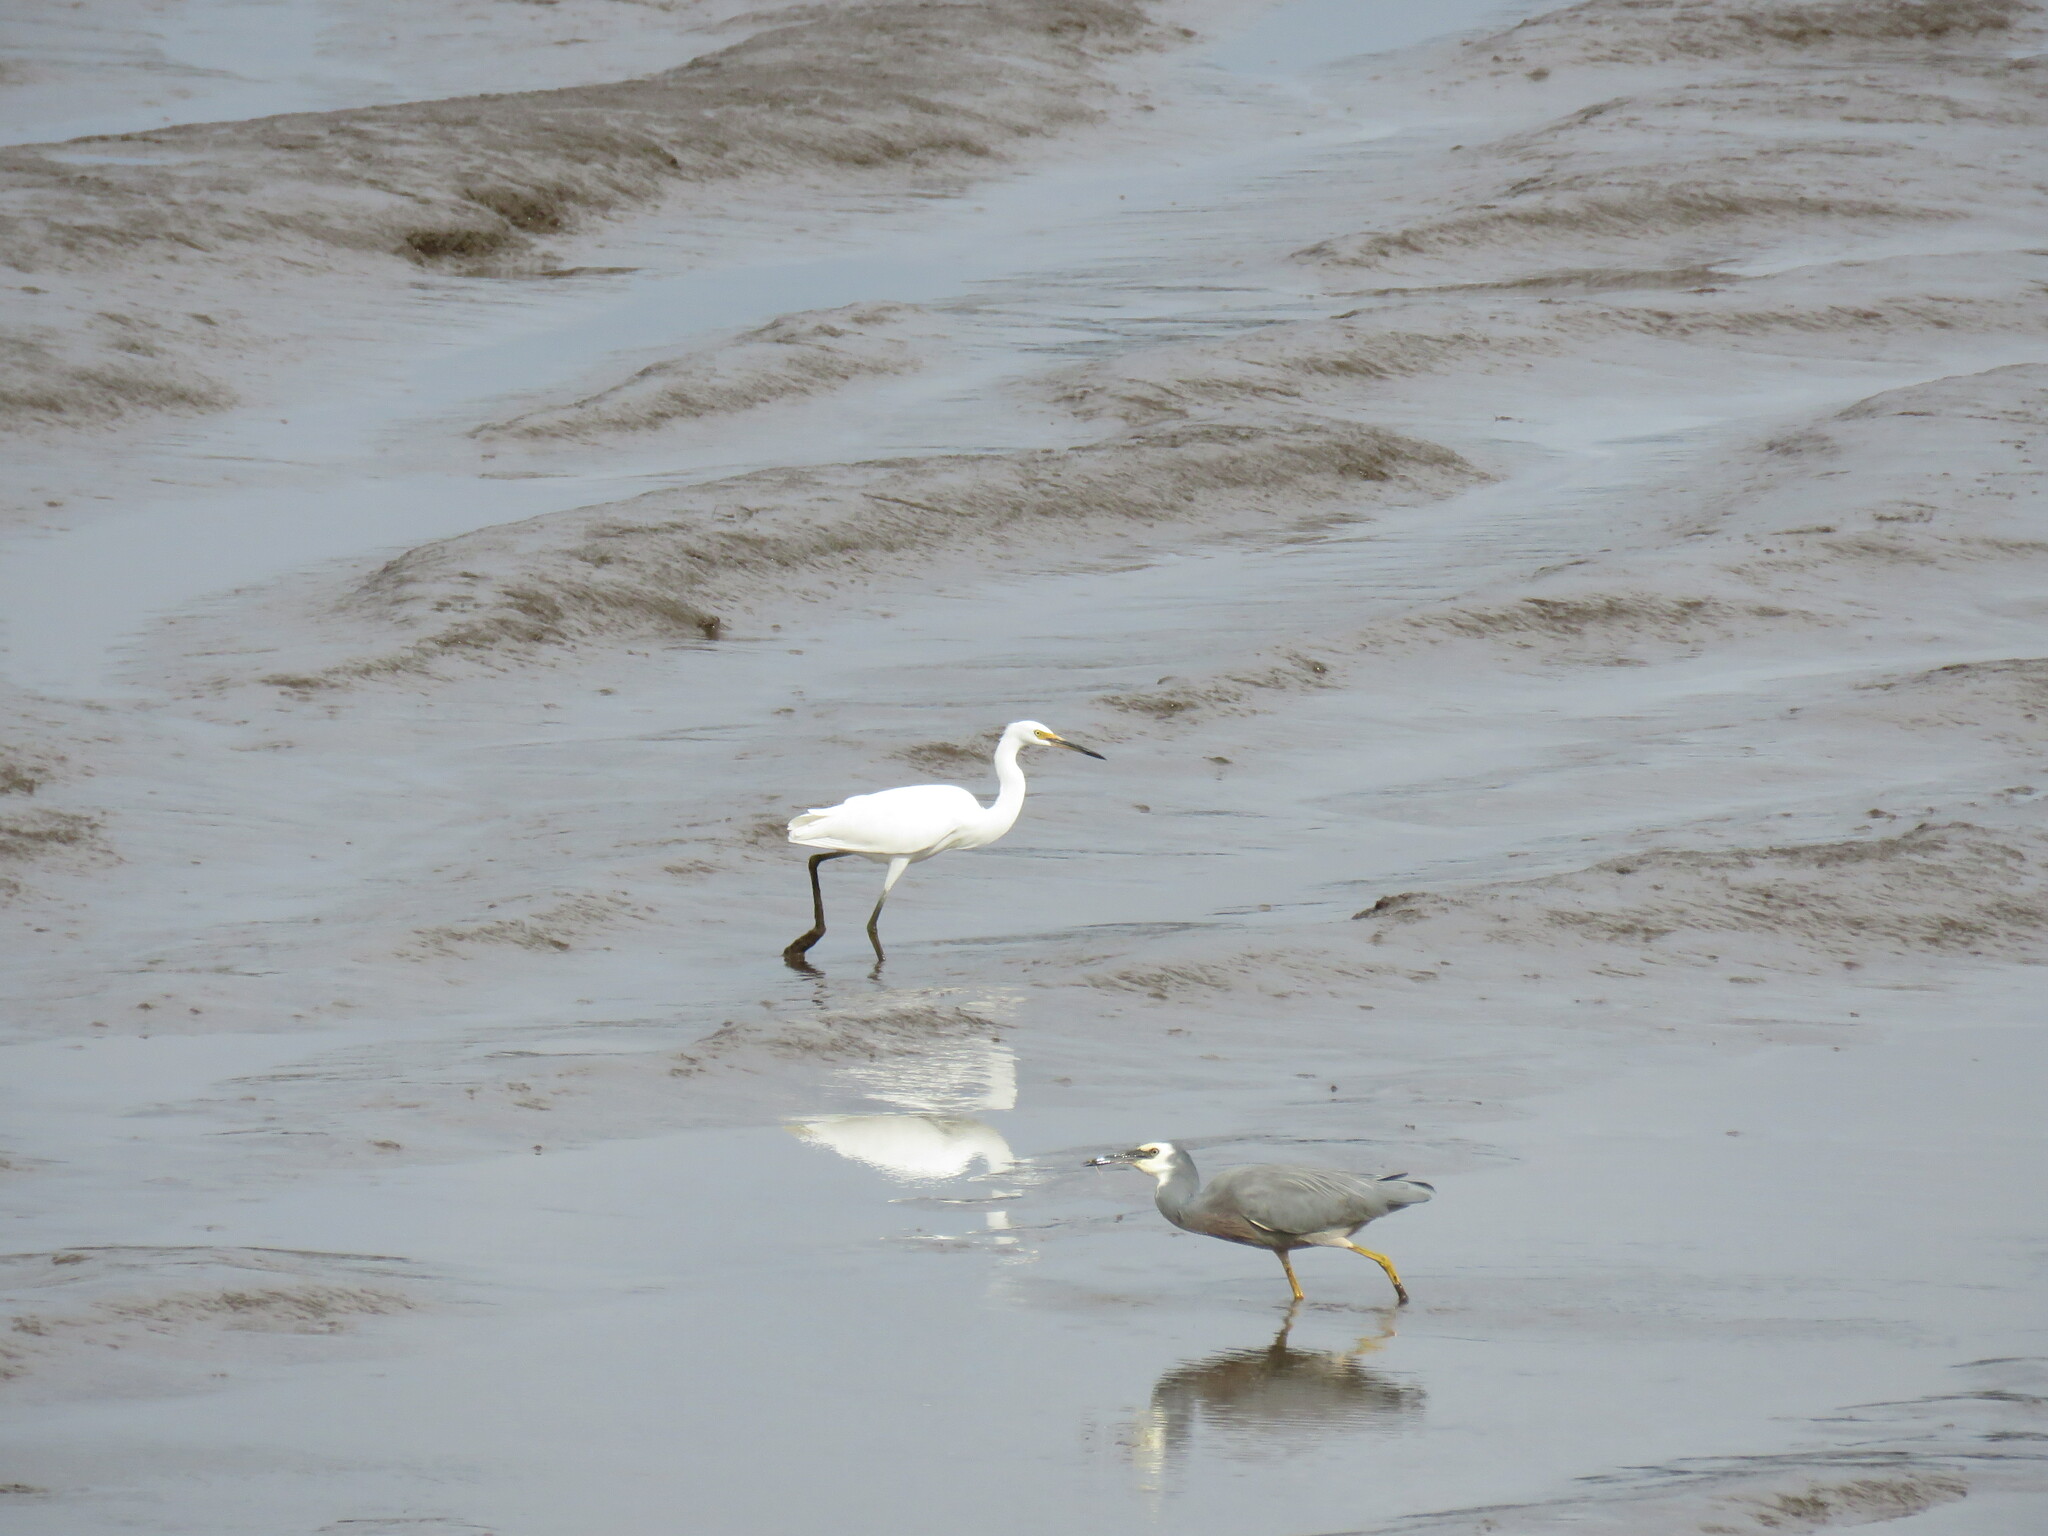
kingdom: Animalia
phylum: Chordata
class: Aves
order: Pelecaniformes
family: Ardeidae
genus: Egretta
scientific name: Egretta garzetta
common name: Little egret
